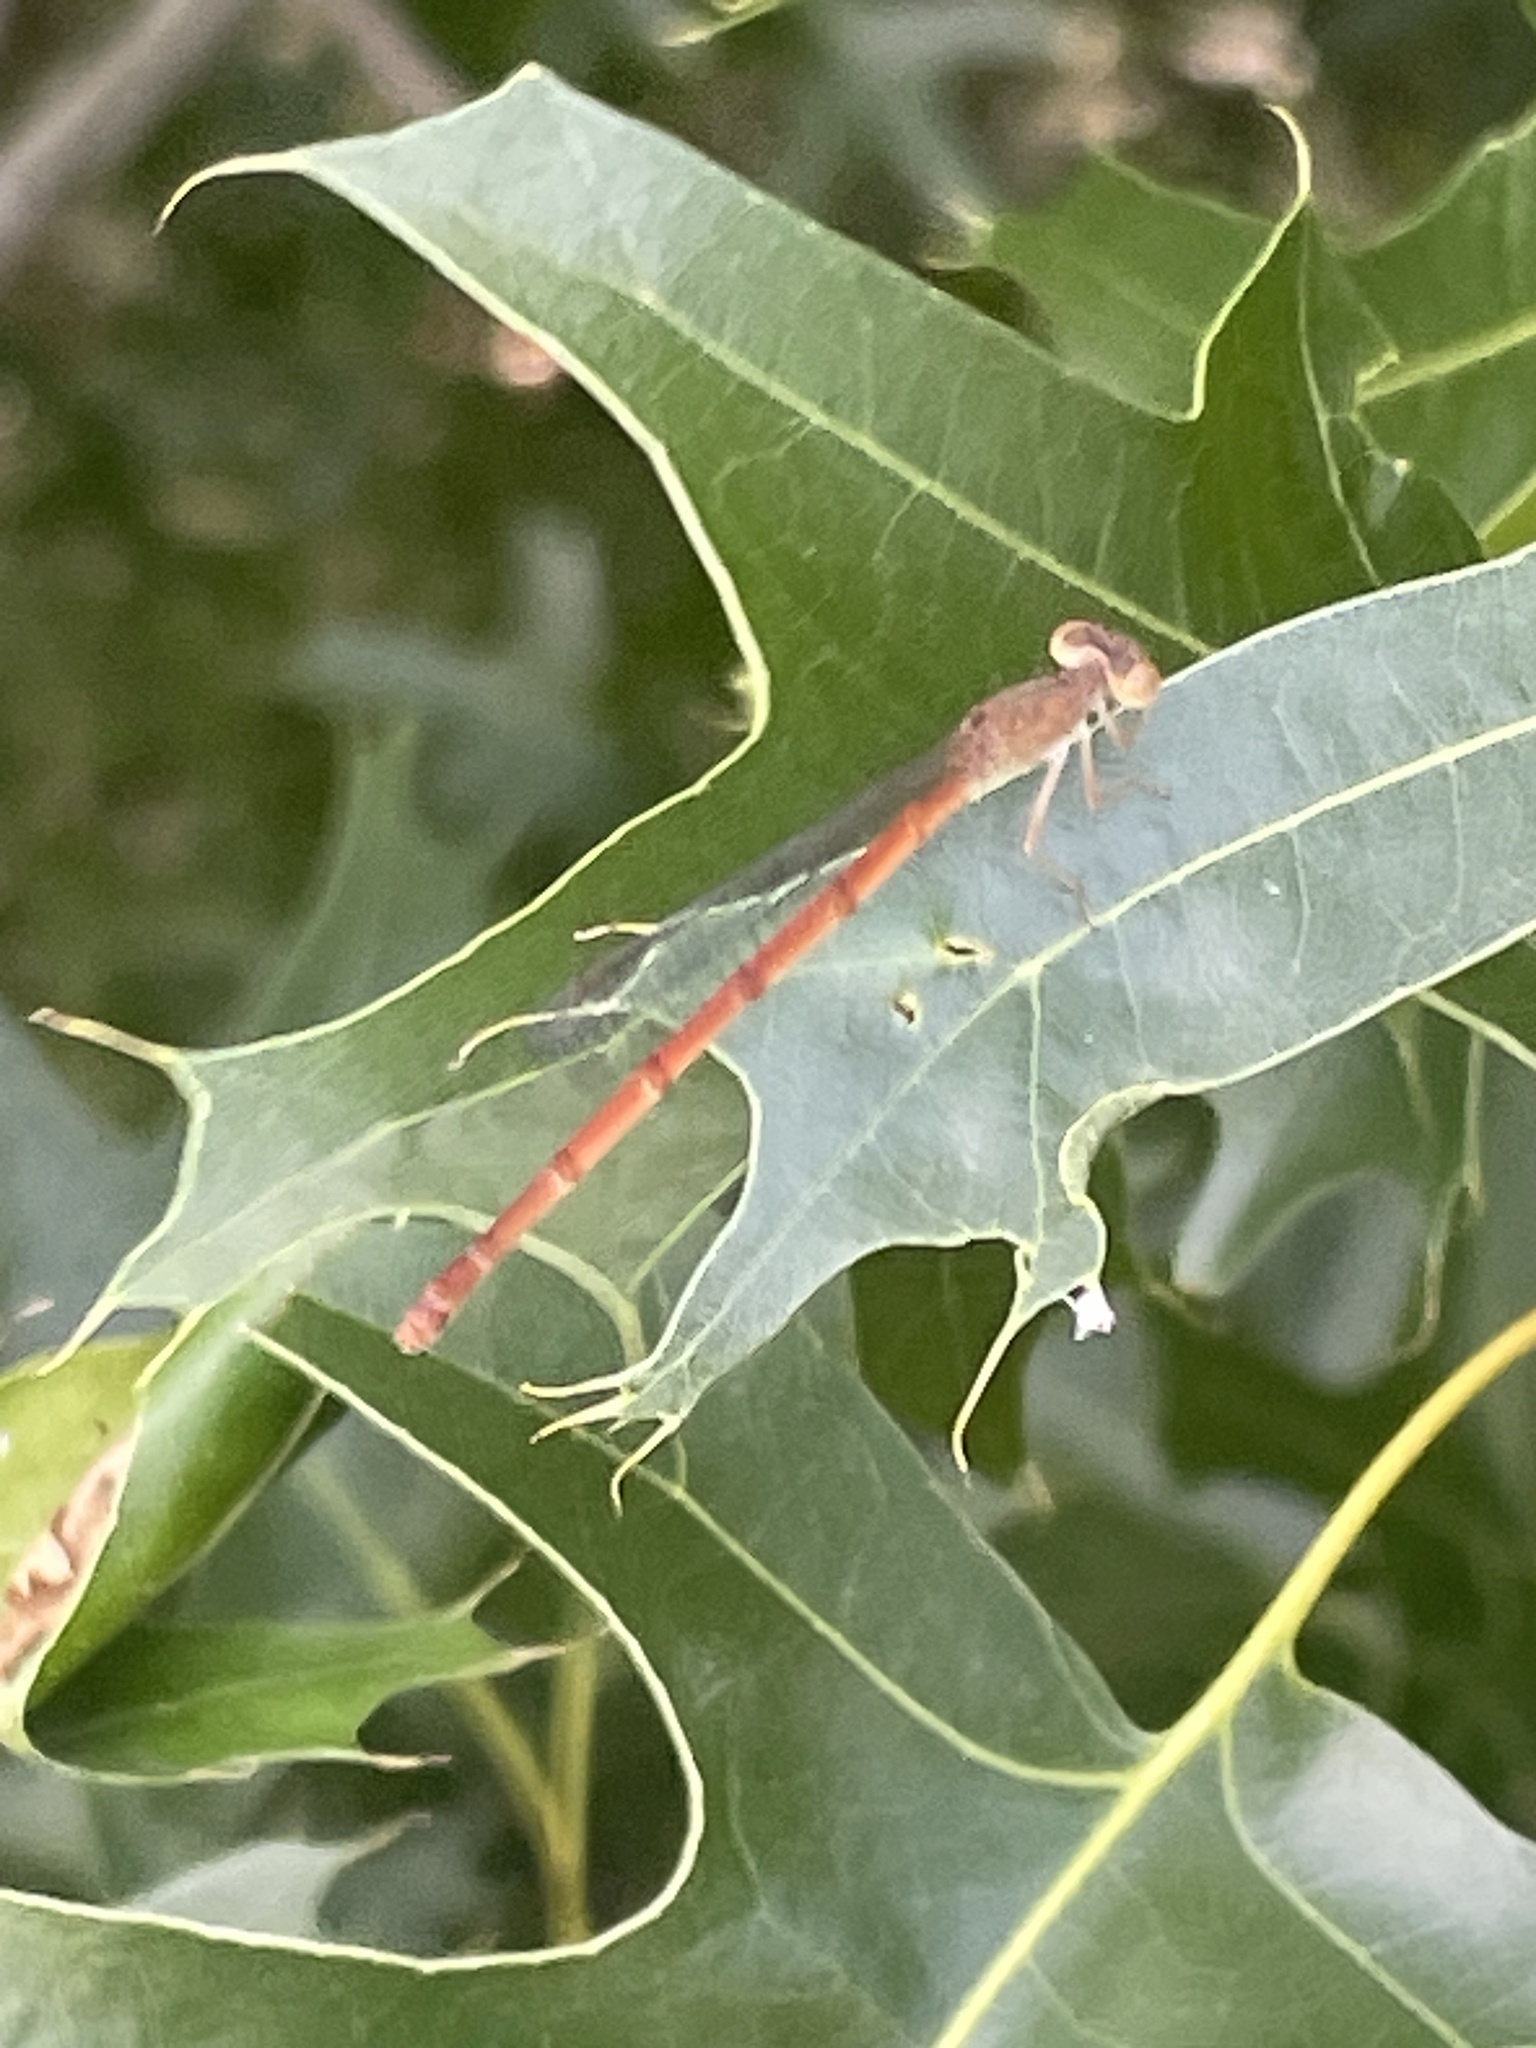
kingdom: Animalia
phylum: Arthropoda
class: Insecta
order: Odonata
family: Coenagrionidae
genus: Telebasis
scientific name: Telebasis salva
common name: Desert firetail
